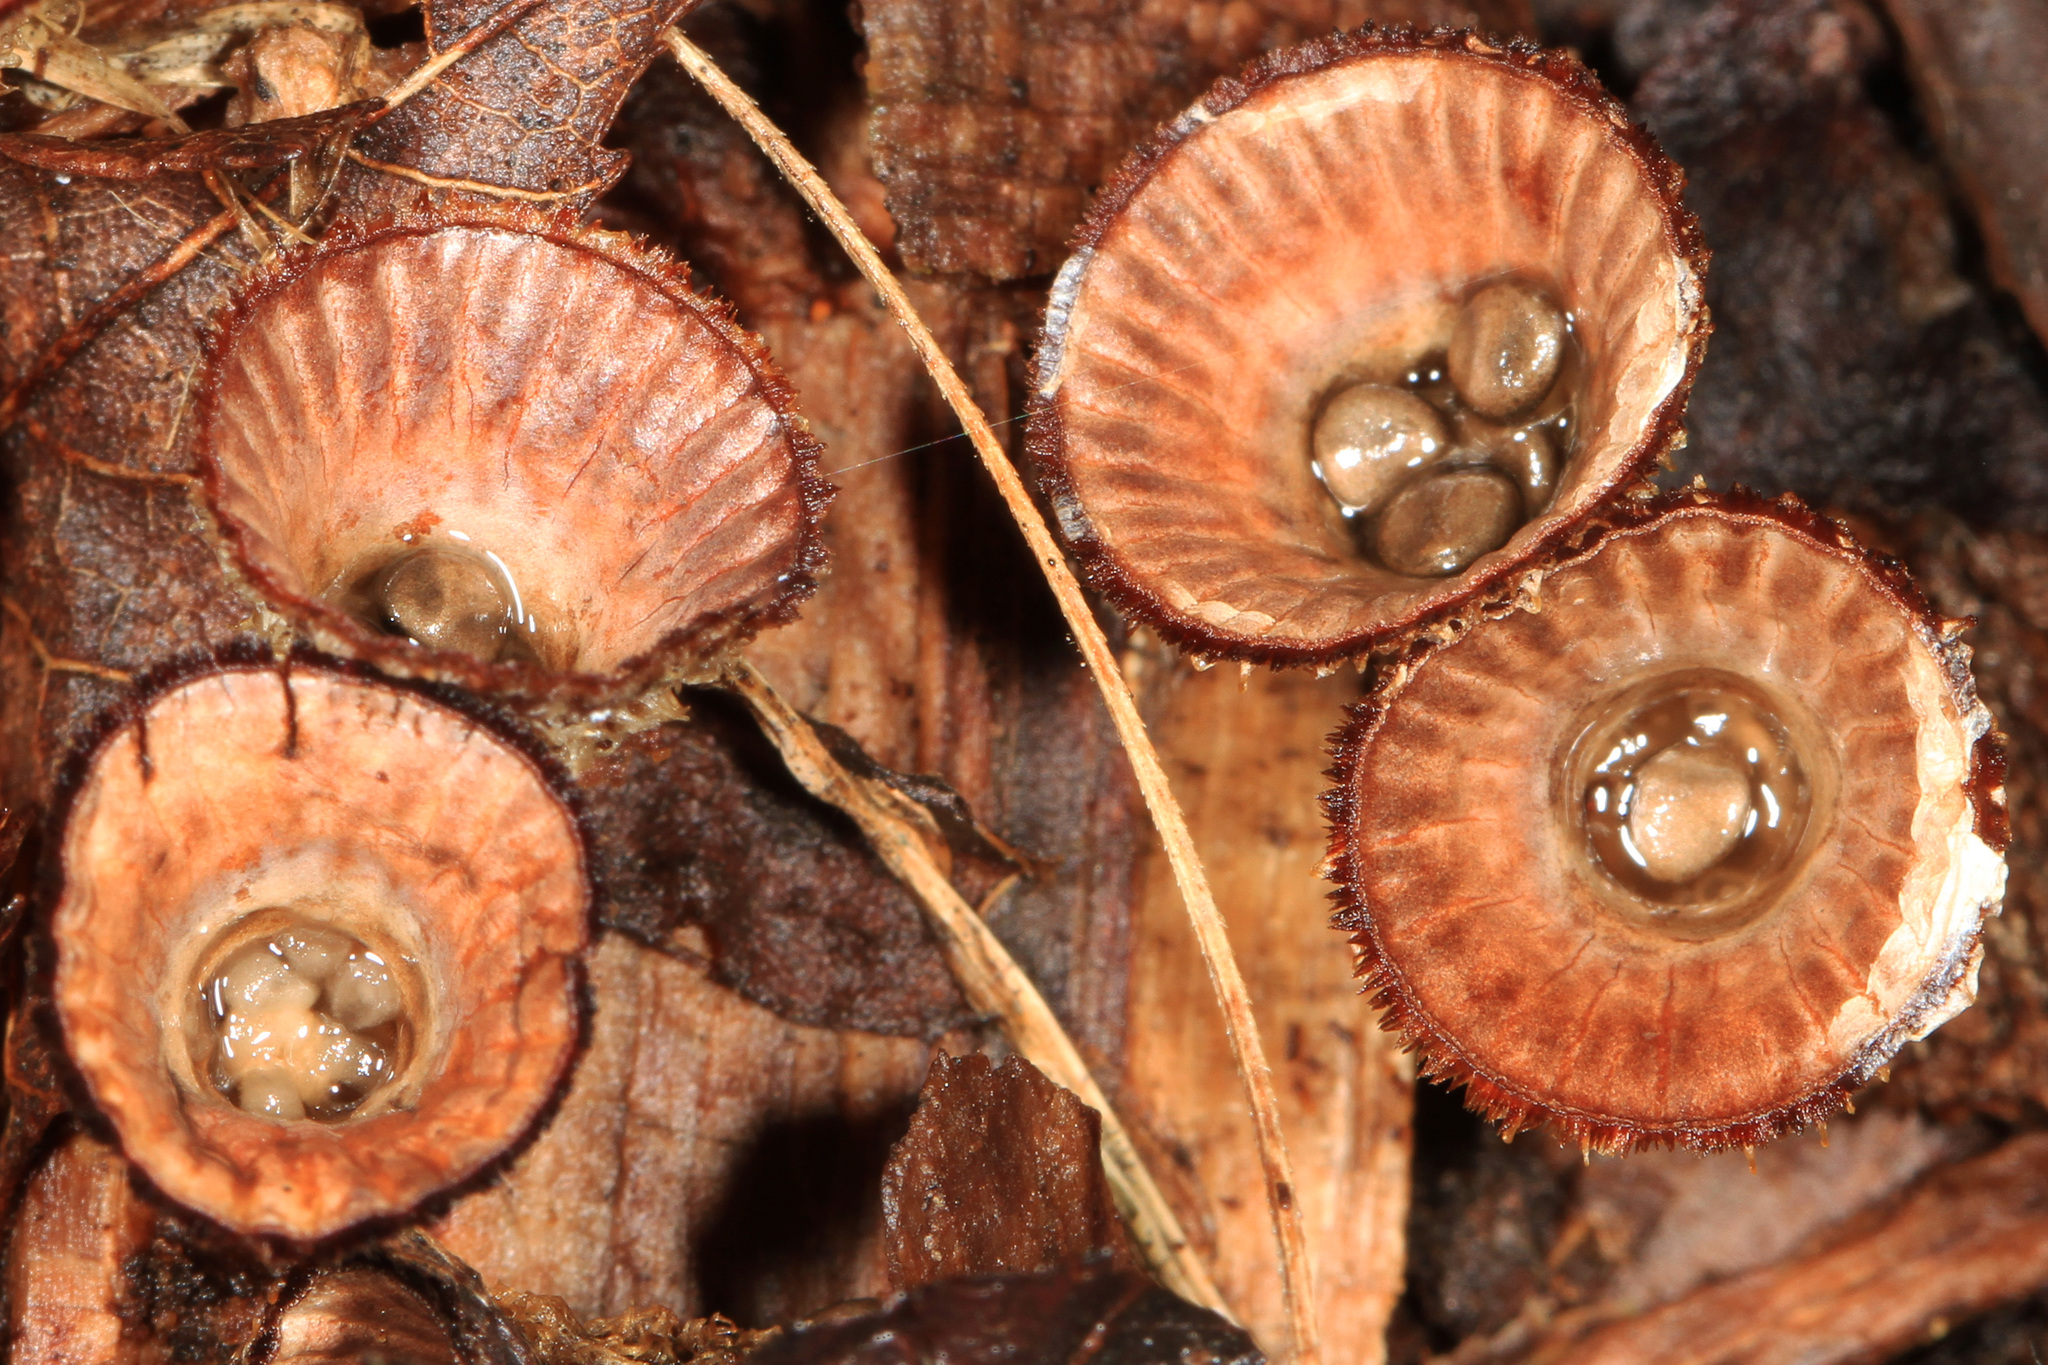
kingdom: Fungi
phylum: Basidiomycota
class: Agaricomycetes
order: Agaricales
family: Agaricaceae
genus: Cyathus
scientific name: Cyathus striatus
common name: Fluted bird's nest
